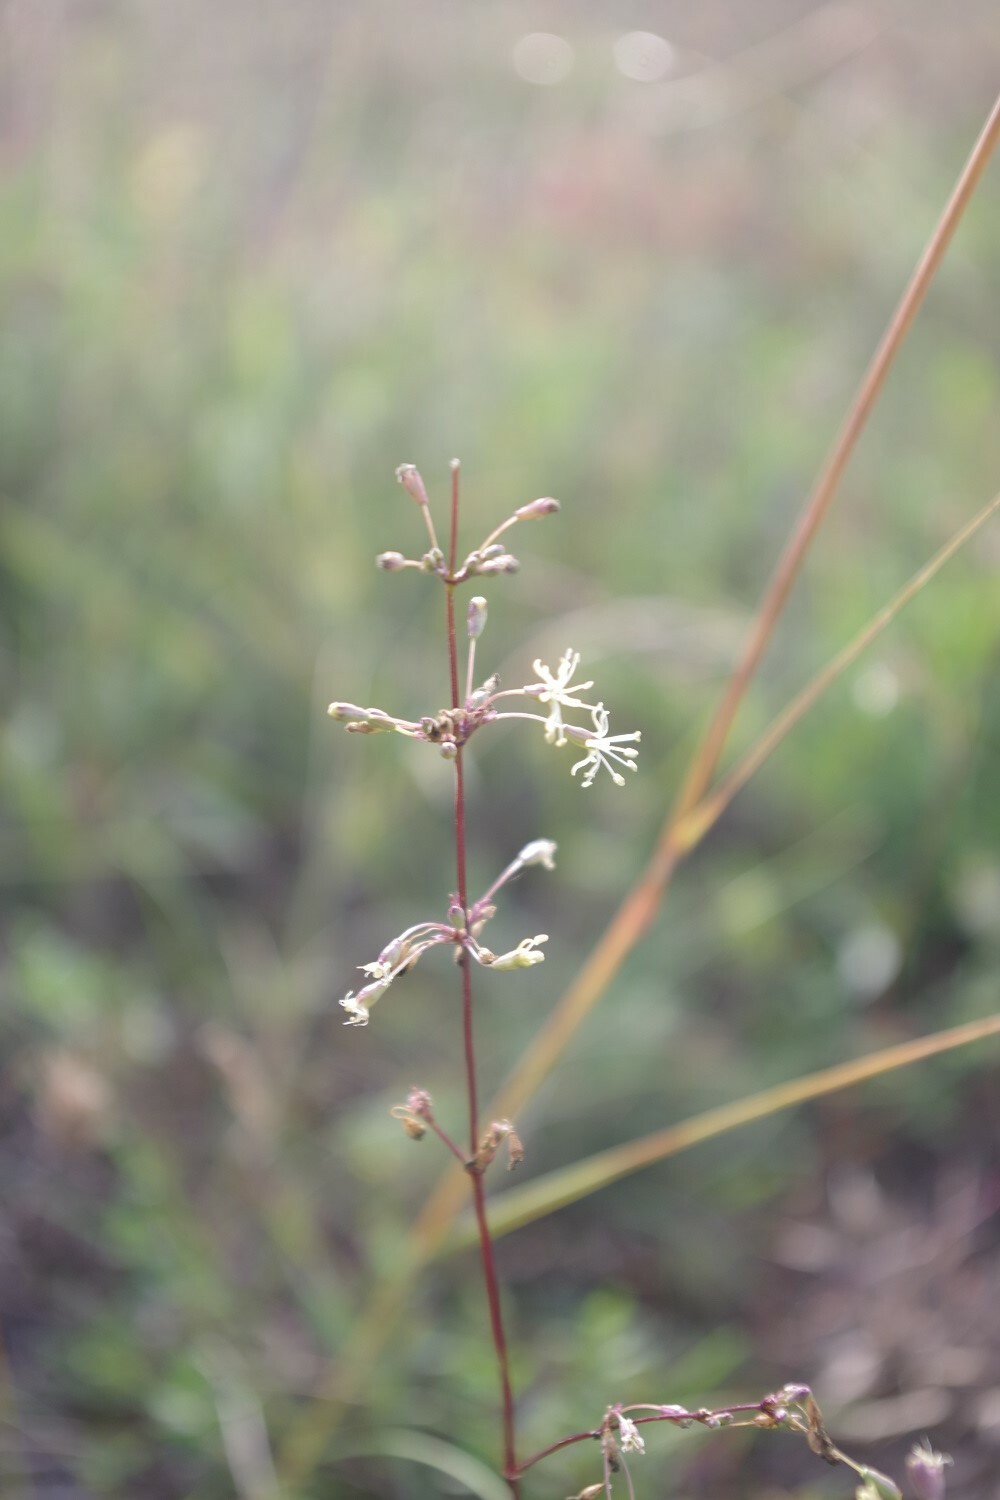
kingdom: Plantae
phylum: Tracheophyta
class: Magnoliopsida
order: Caryophyllales
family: Caryophyllaceae
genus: Silene
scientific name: Silene otites
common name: Spanish catchfly
